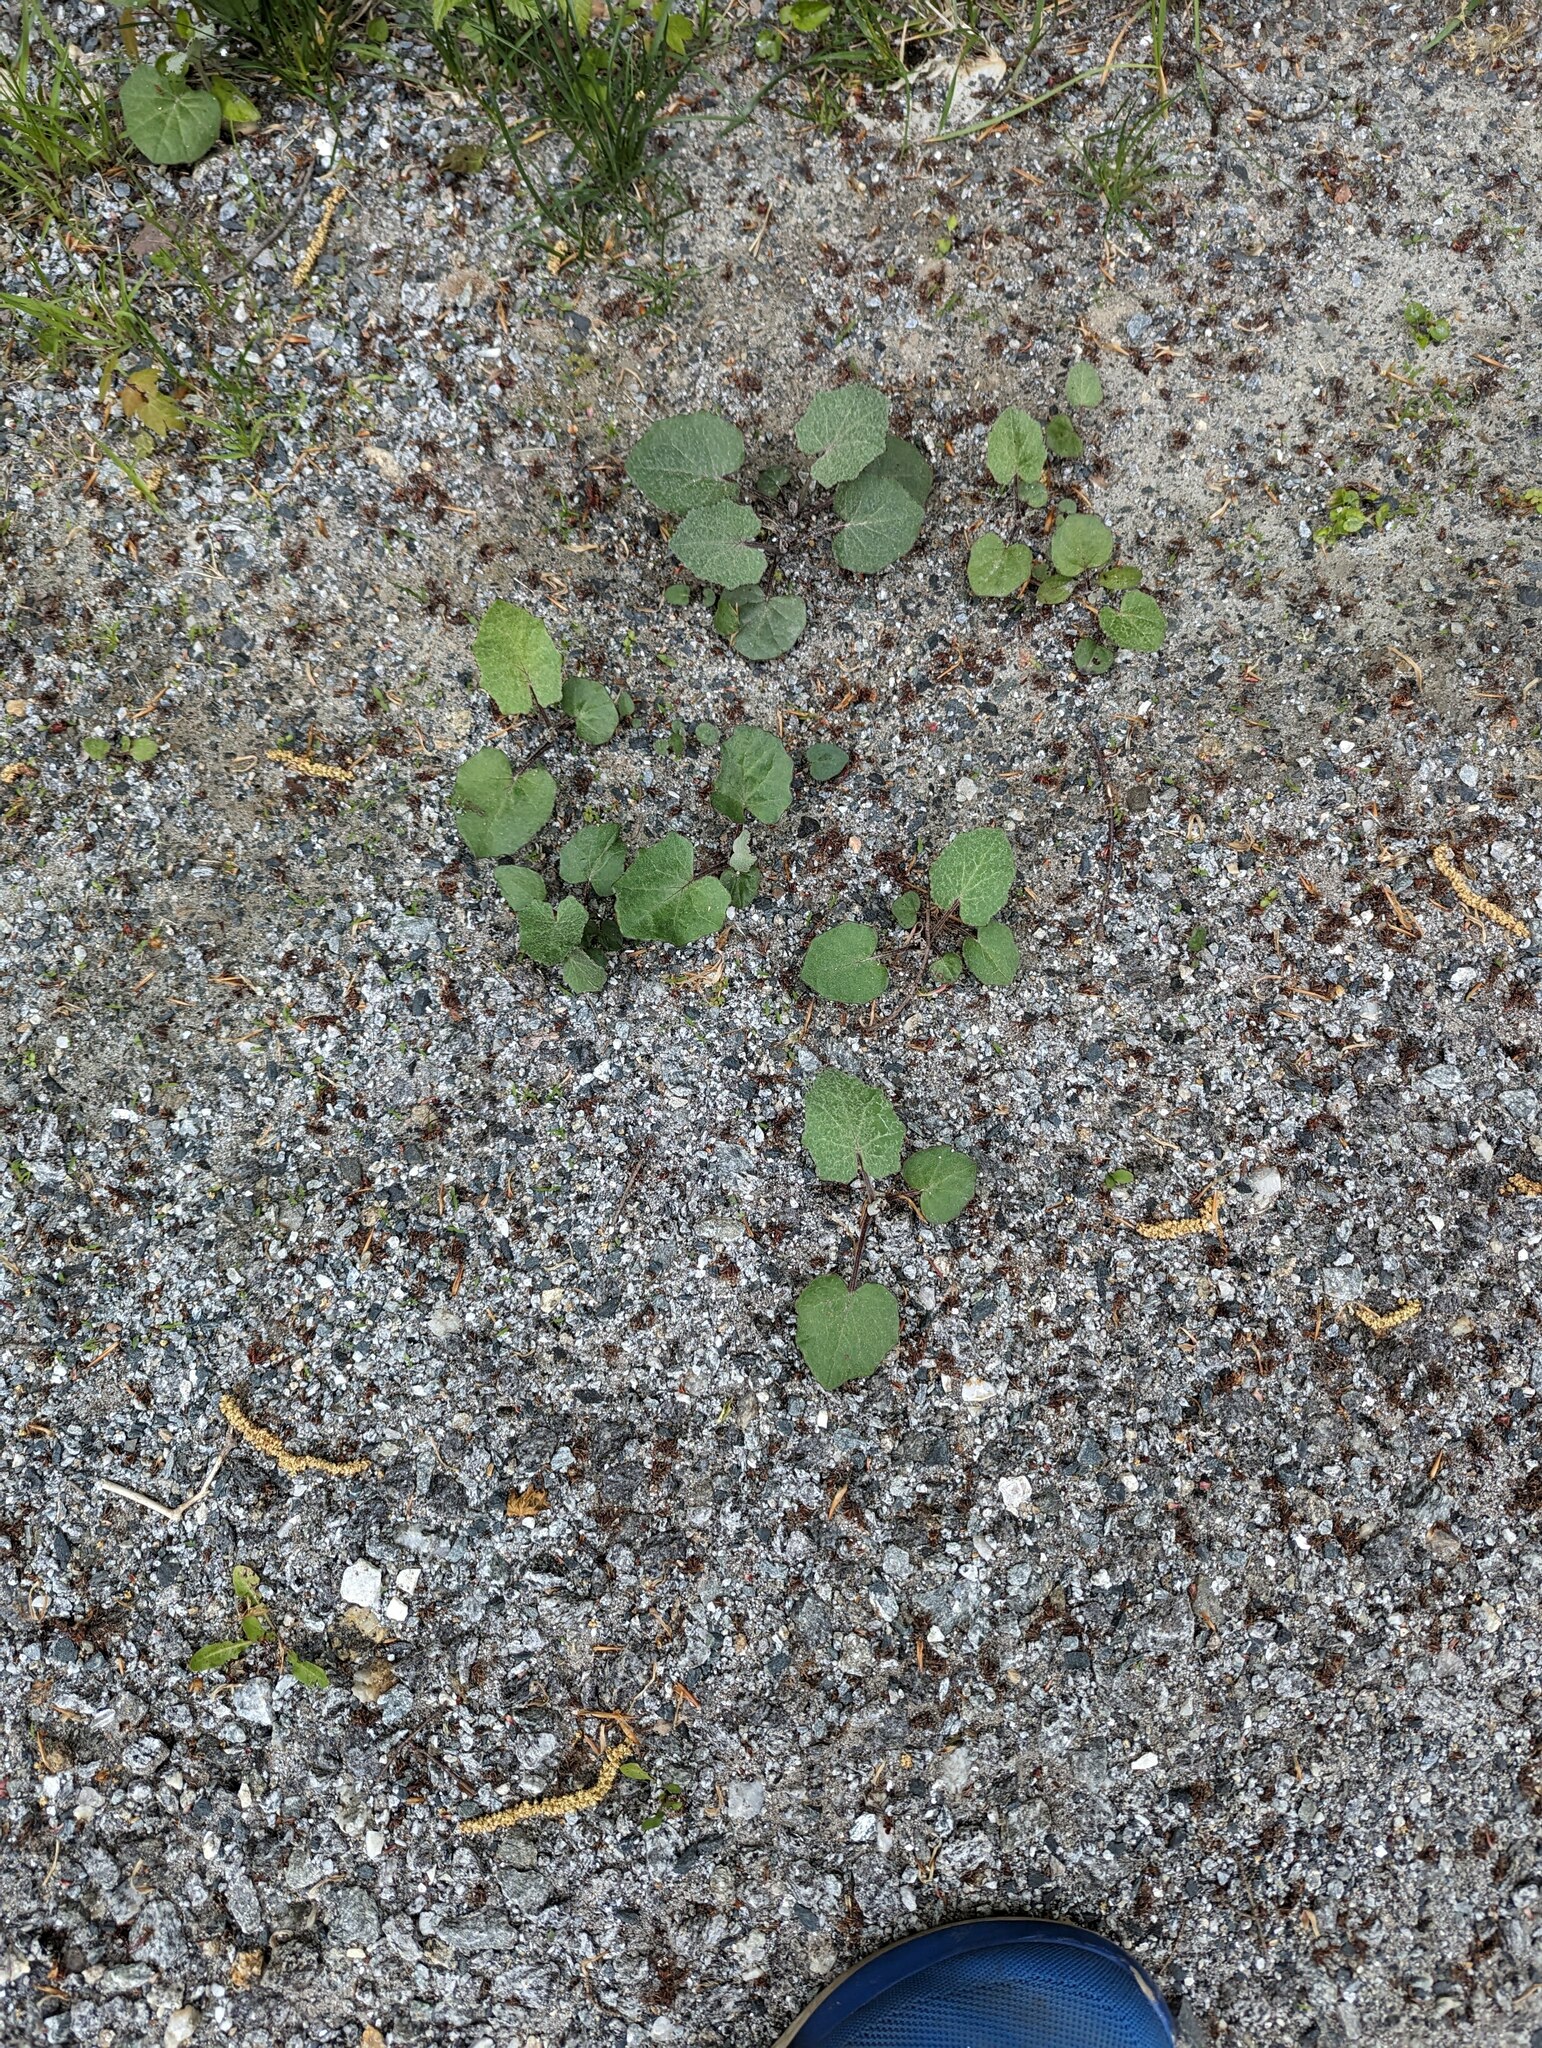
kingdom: Plantae
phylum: Tracheophyta
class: Magnoliopsida
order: Asterales
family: Asteraceae
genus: Tussilago
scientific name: Tussilago farfara
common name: Coltsfoot
